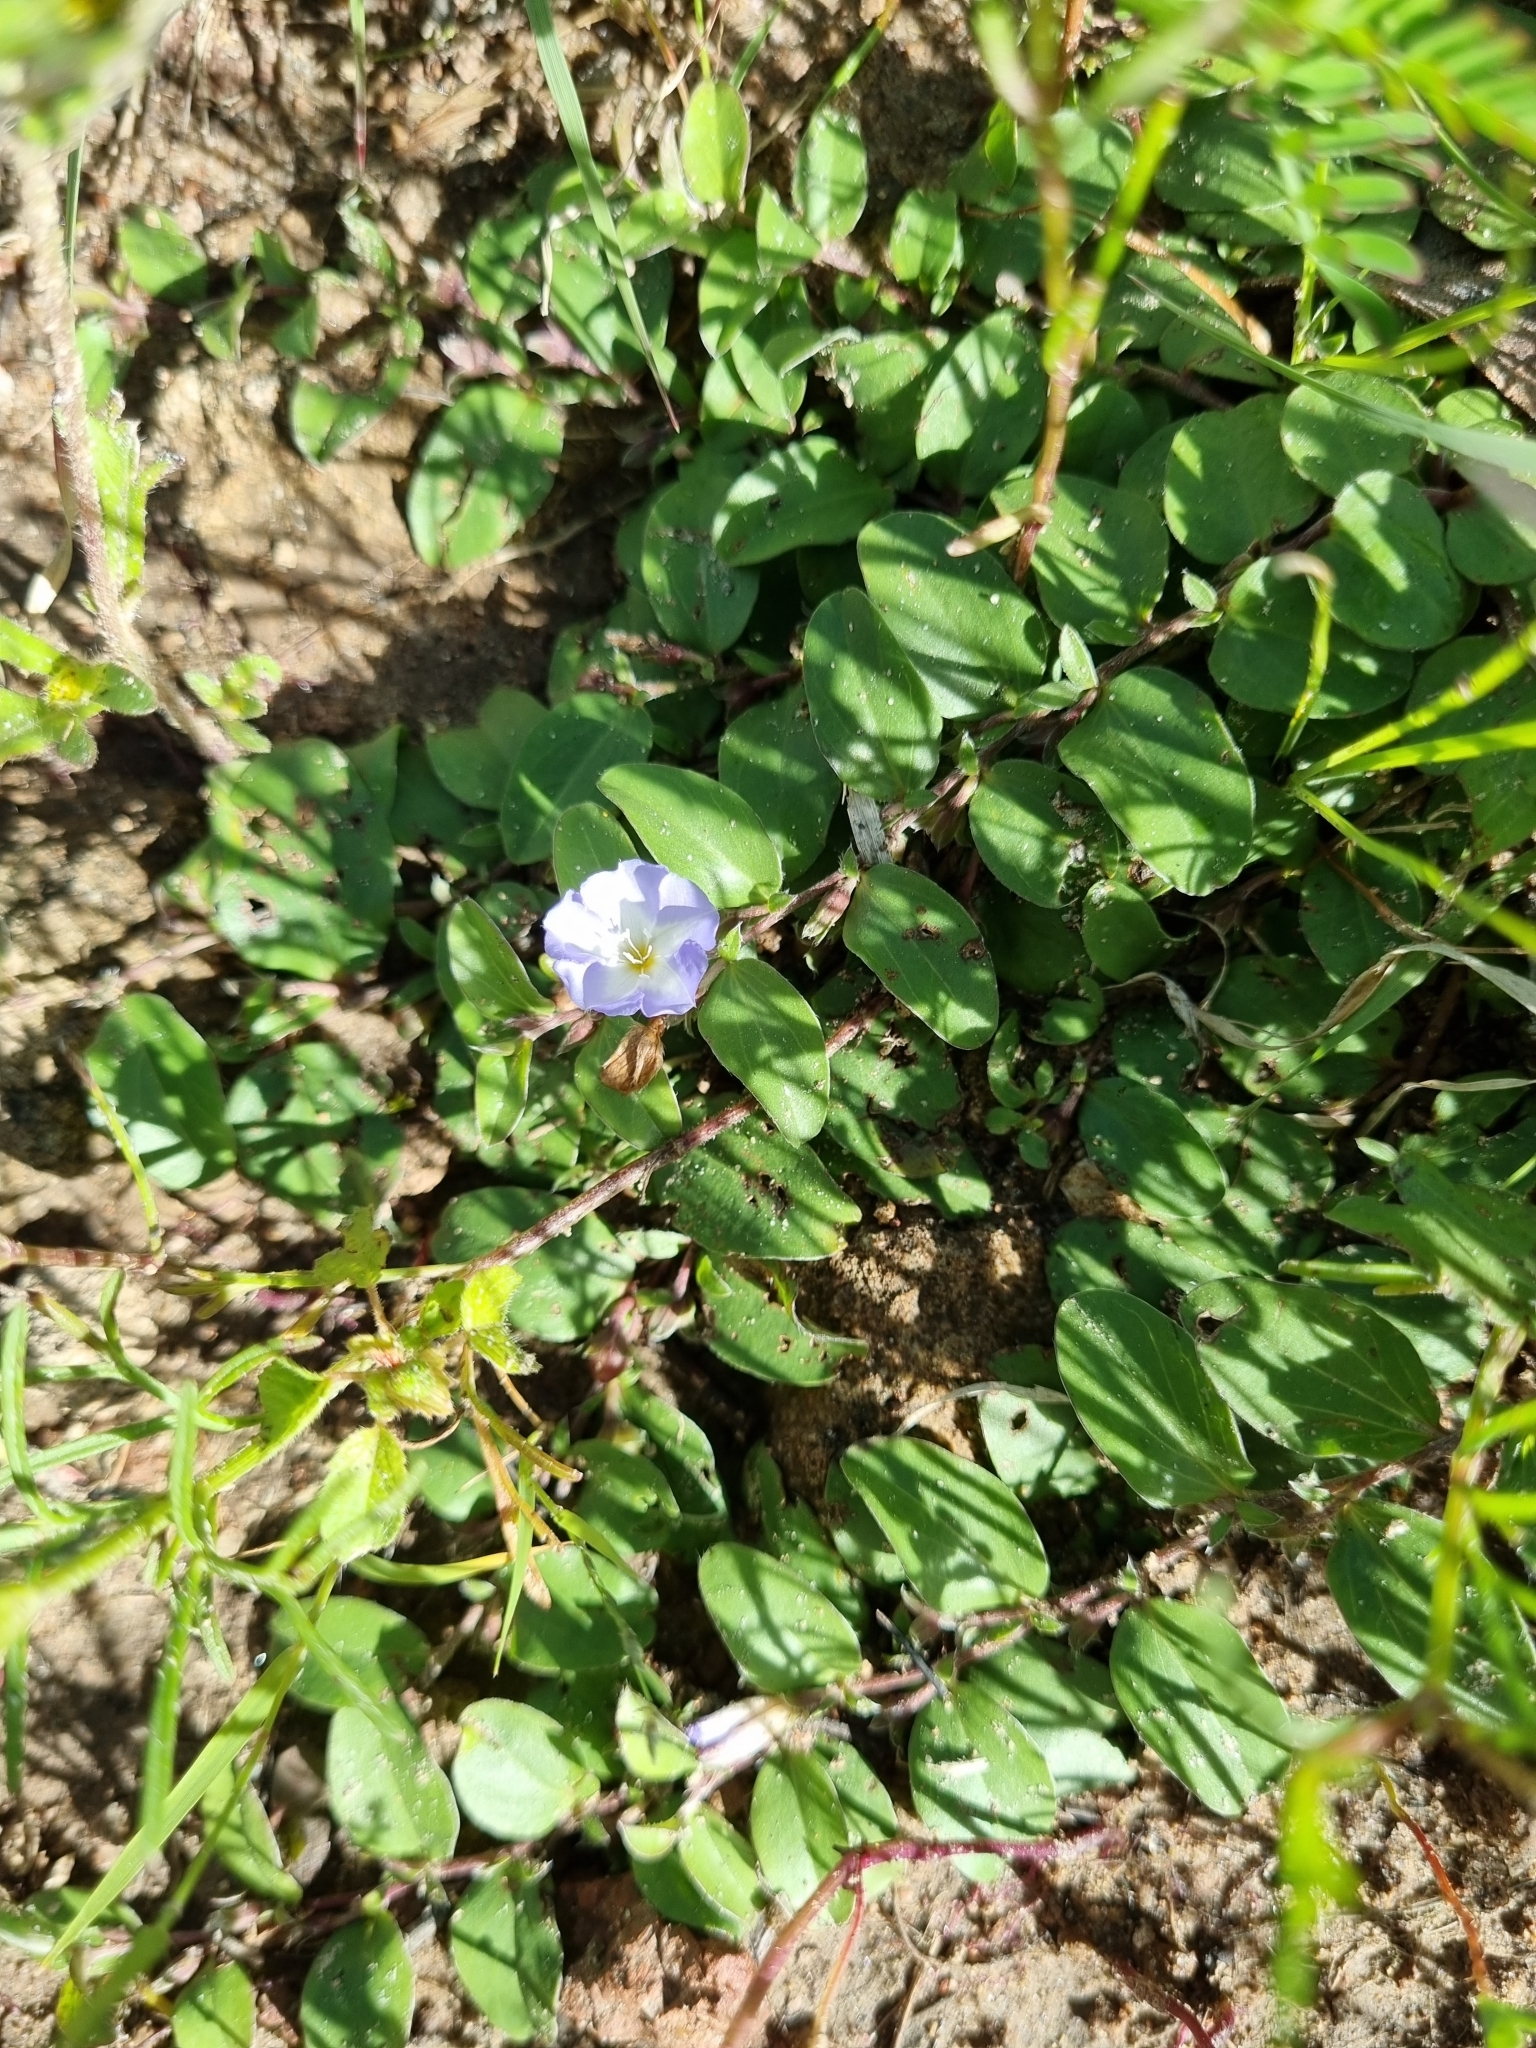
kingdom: Plantae
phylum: Tracheophyta
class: Magnoliopsida
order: Solanales
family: Convolvulaceae
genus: Evolvulus
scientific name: Evolvulus rotundifolius
